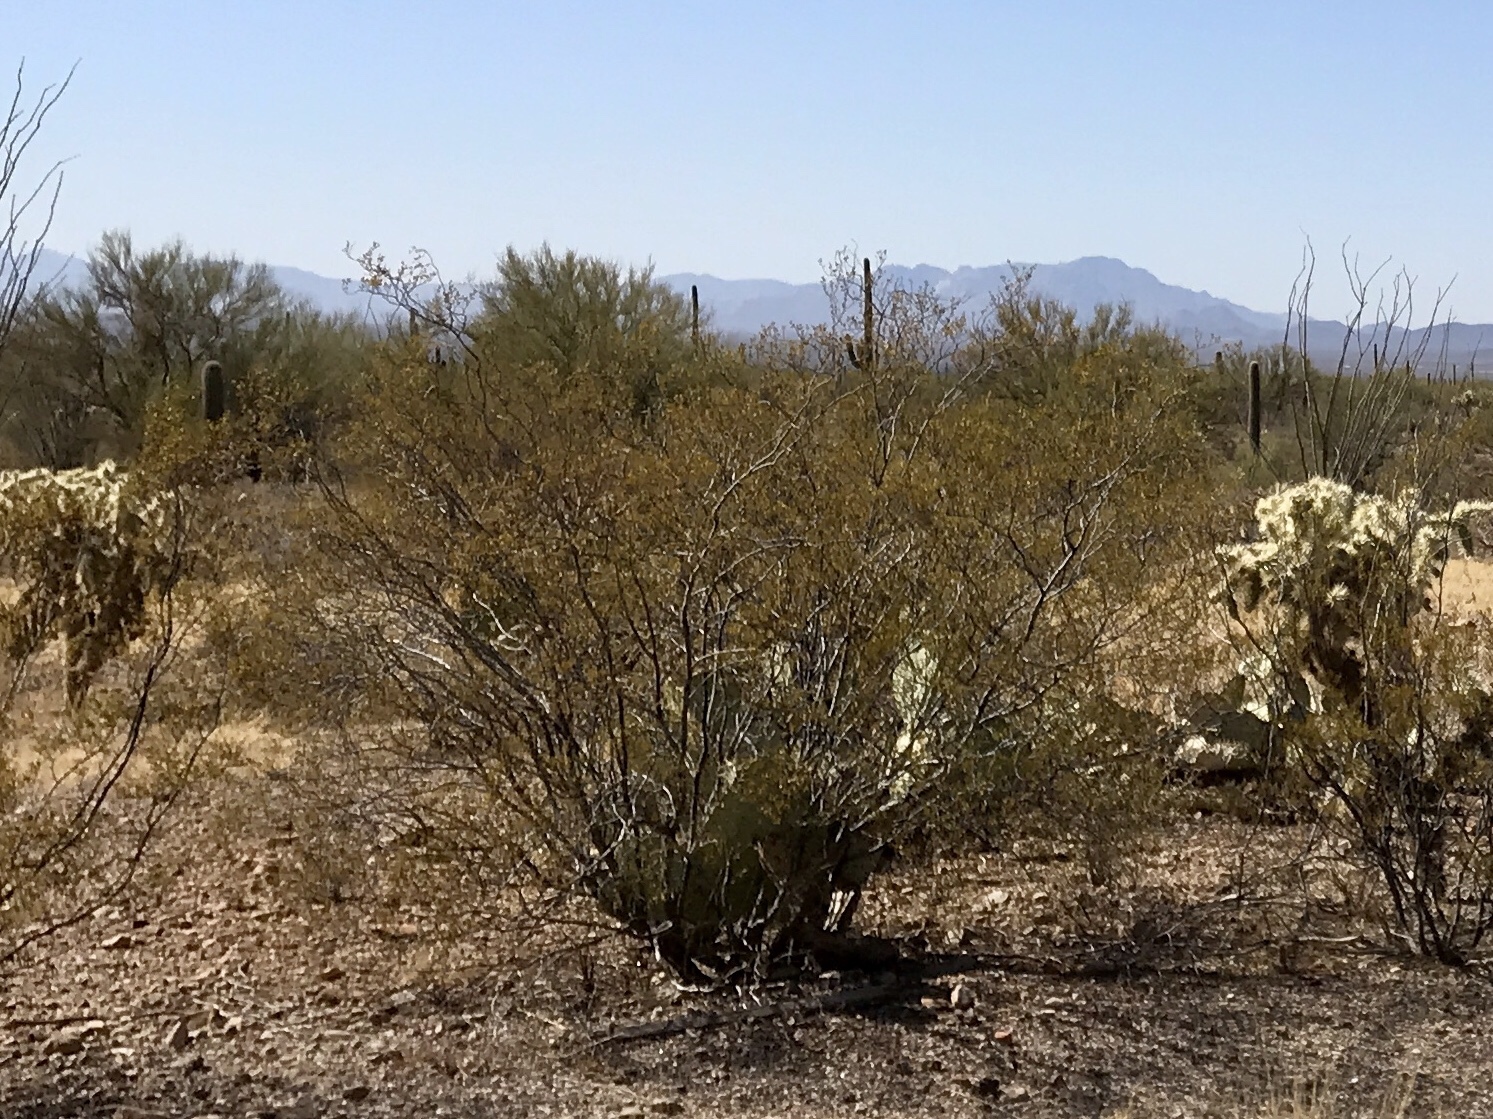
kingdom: Plantae
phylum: Tracheophyta
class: Magnoliopsida
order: Zygophyllales
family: Zygophyllaceae
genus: Larrea
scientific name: Larrea tridentata
